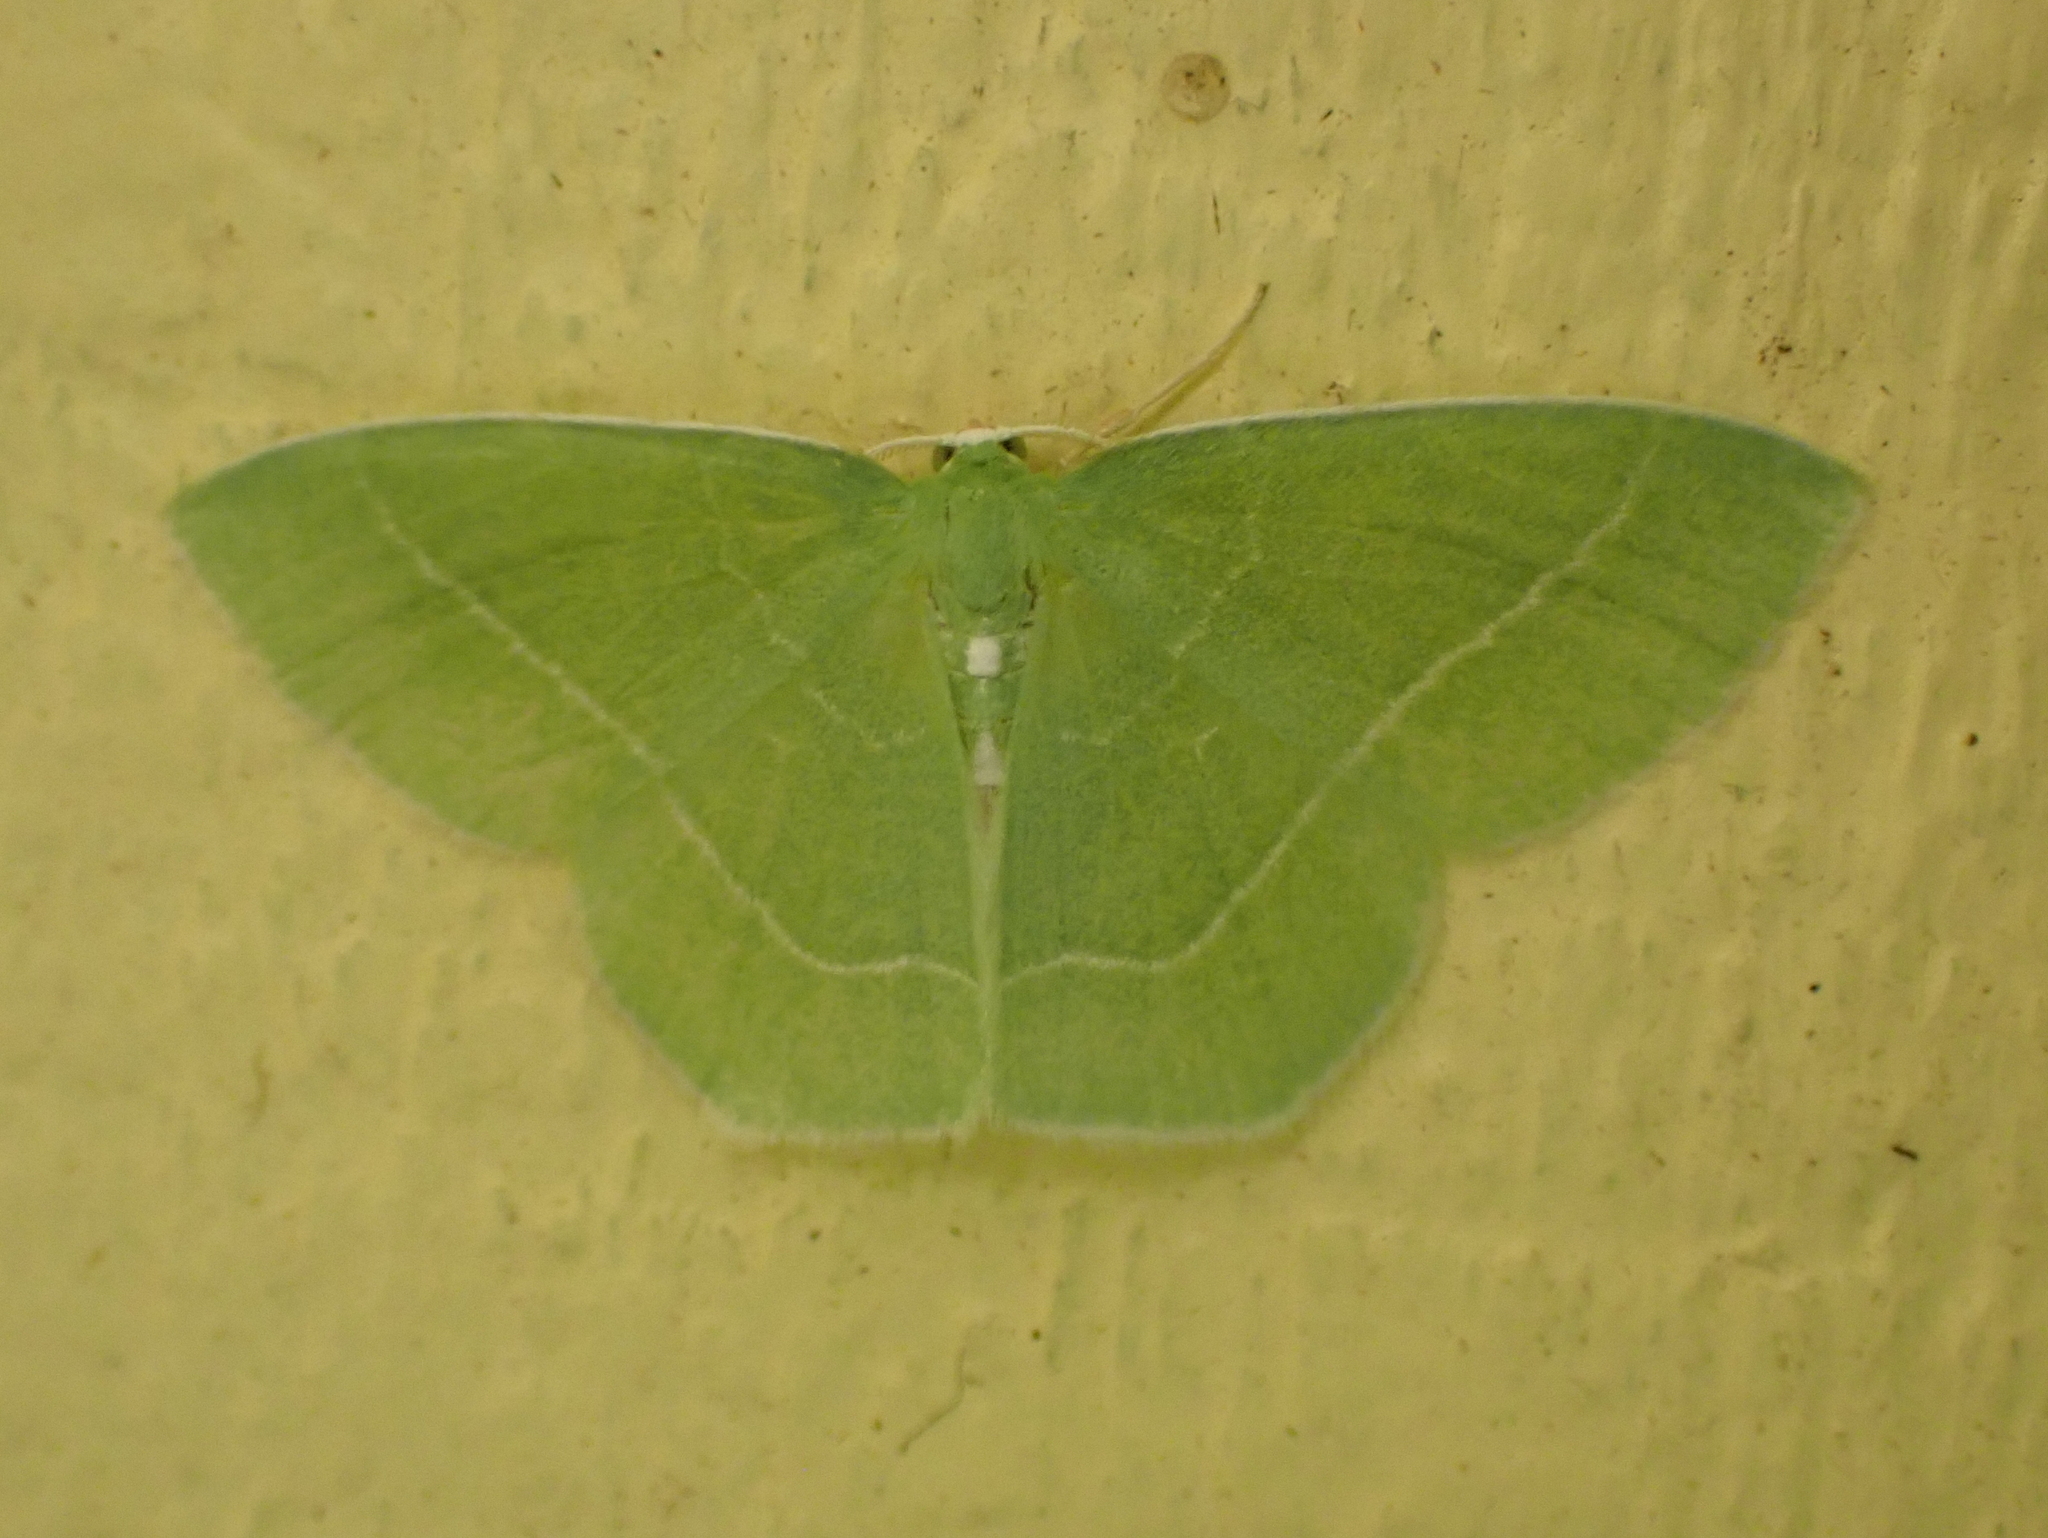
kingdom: Animalia
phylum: Arthropoda
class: Insecta
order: Lepidoptera
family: Geometridae
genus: Nemoria
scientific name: Nemoria mimosaria
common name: White-fringed emerald
